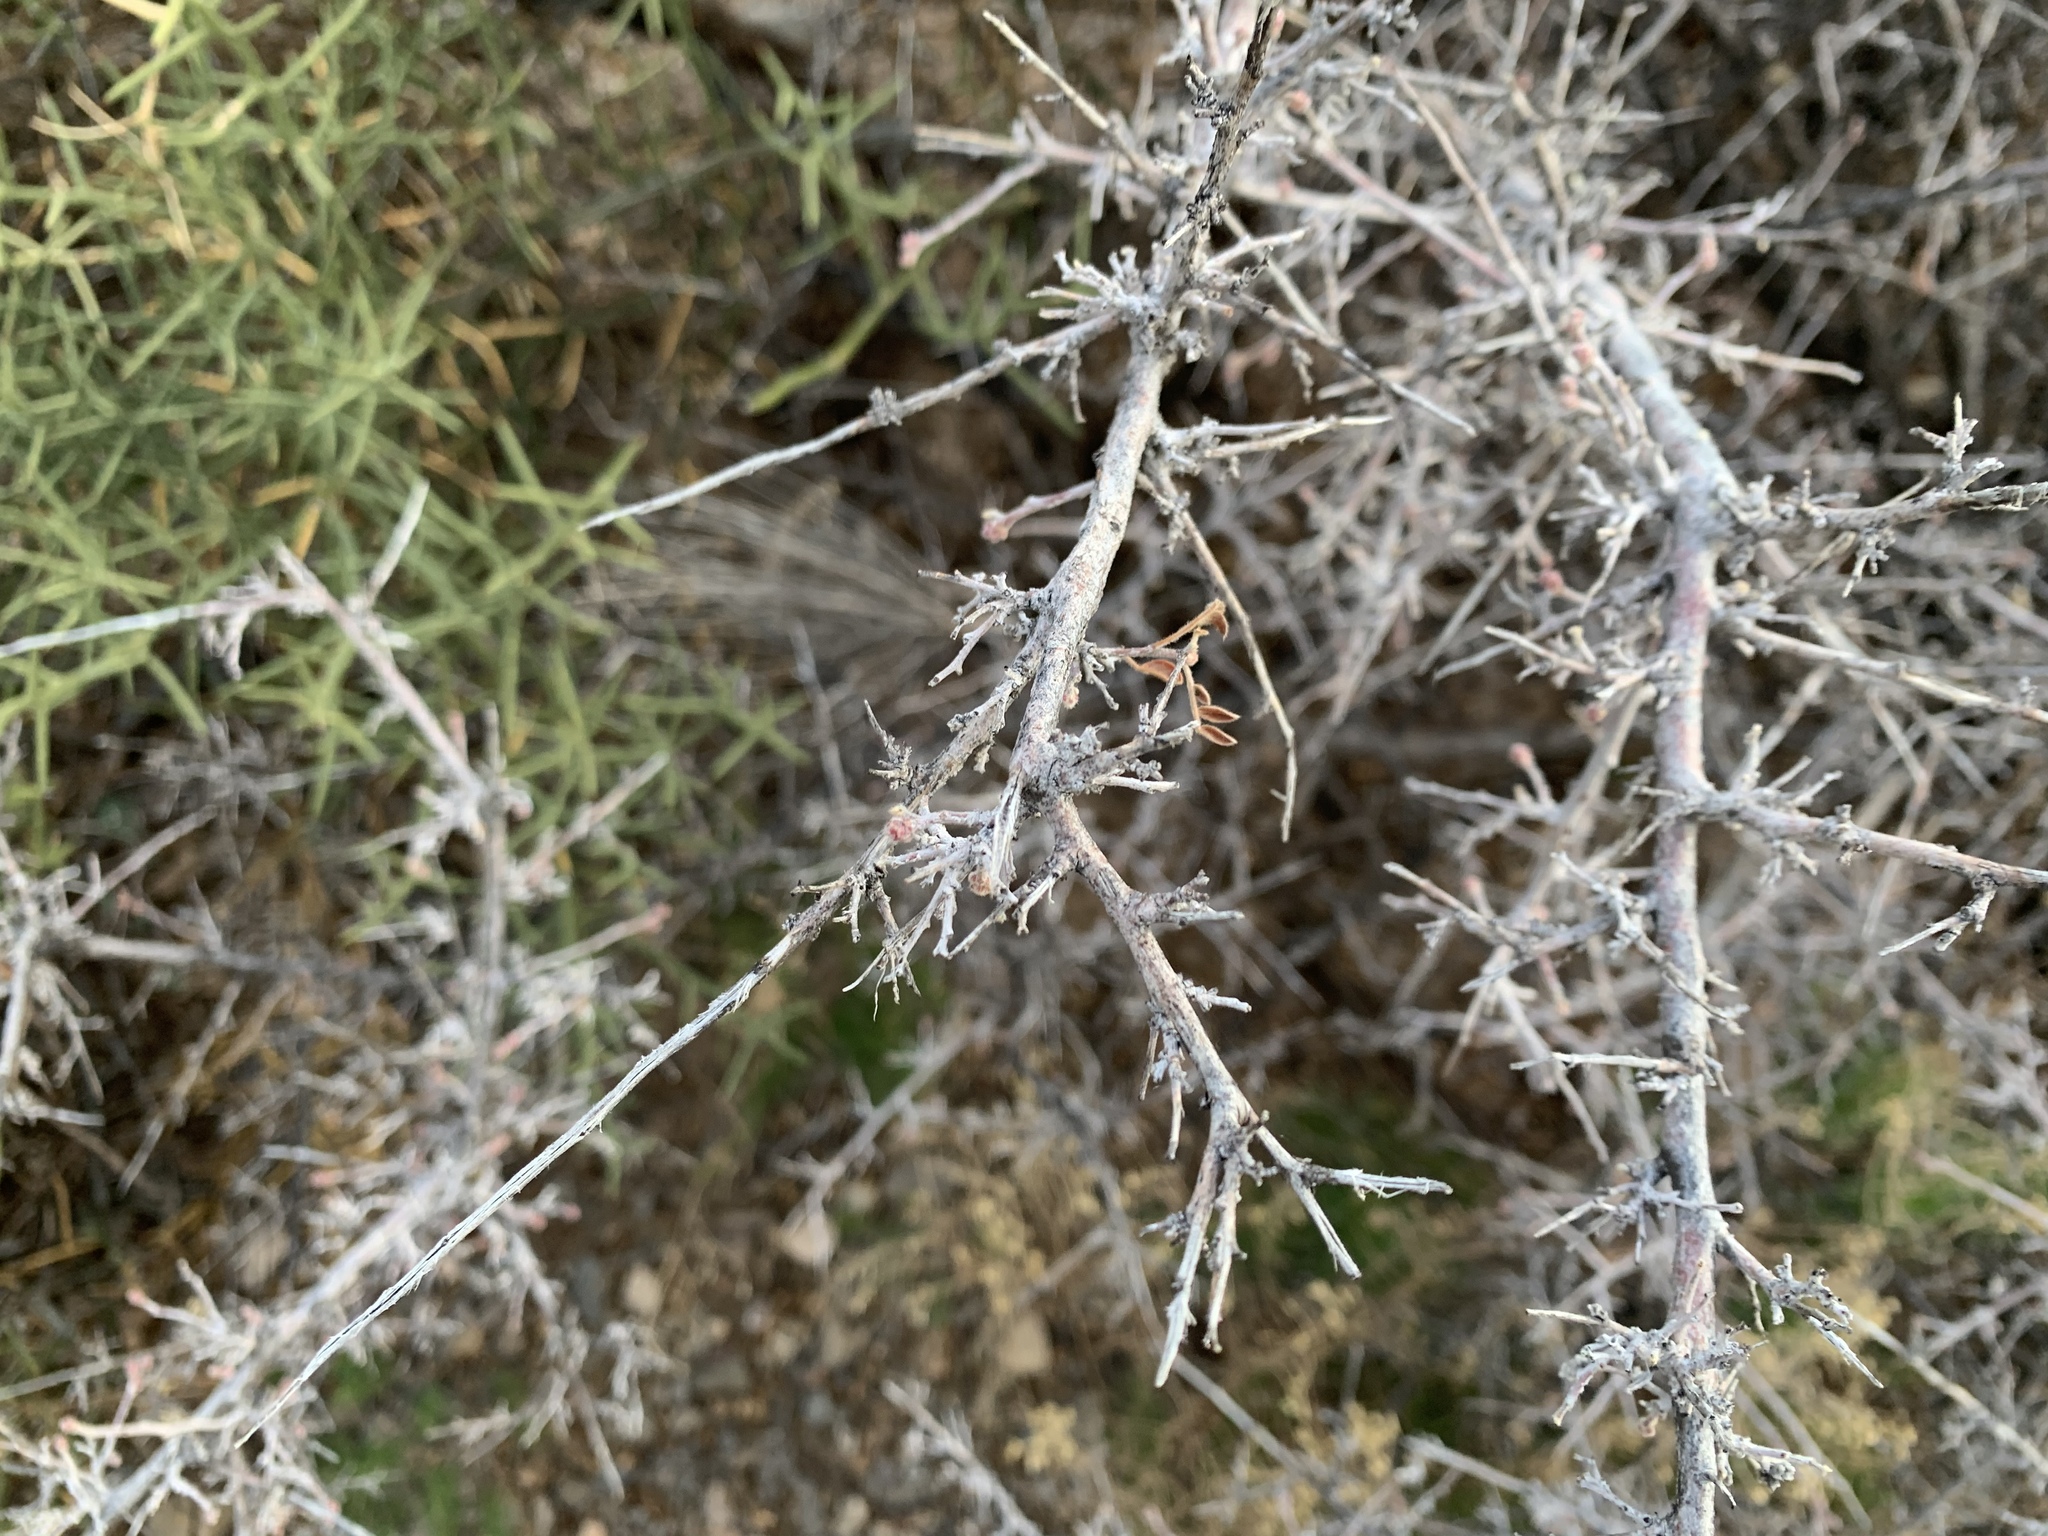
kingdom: Plantae
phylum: Tracheophyta
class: Magnoliopsida
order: Sapindales
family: Anacardiaceae
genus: Rhus
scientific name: Rhus microphylla
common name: Desert sumac
